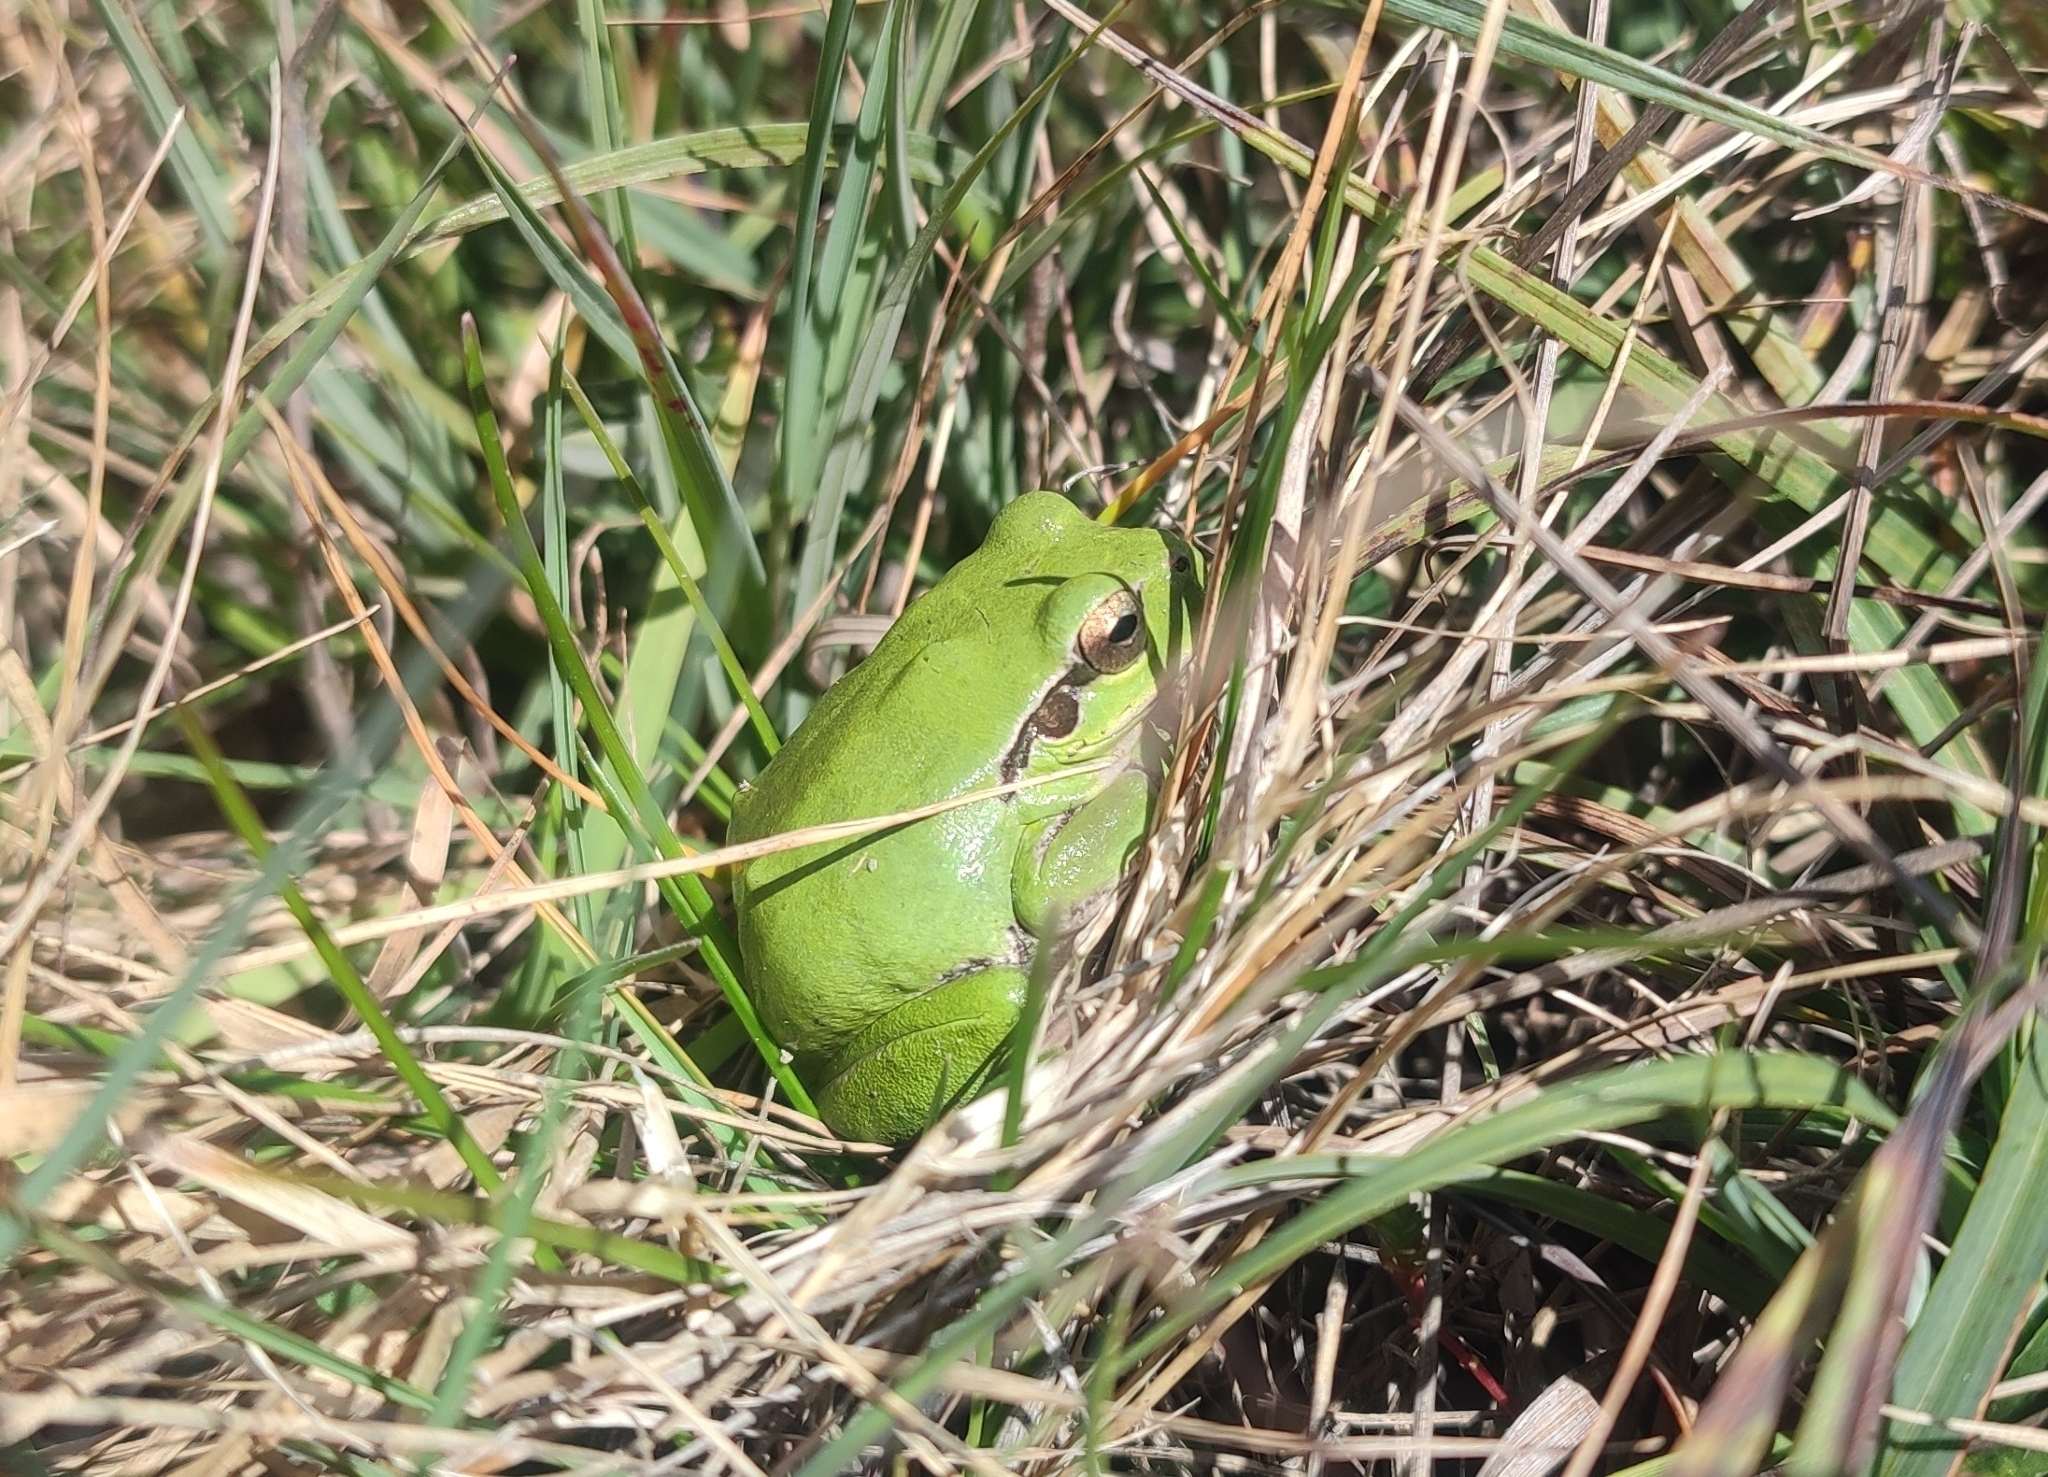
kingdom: Animalia
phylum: Chordata
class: Amphibia
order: Anura
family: Hylidae
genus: Hyla
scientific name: Hyla meridionalis
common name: Stripeless tree frog
